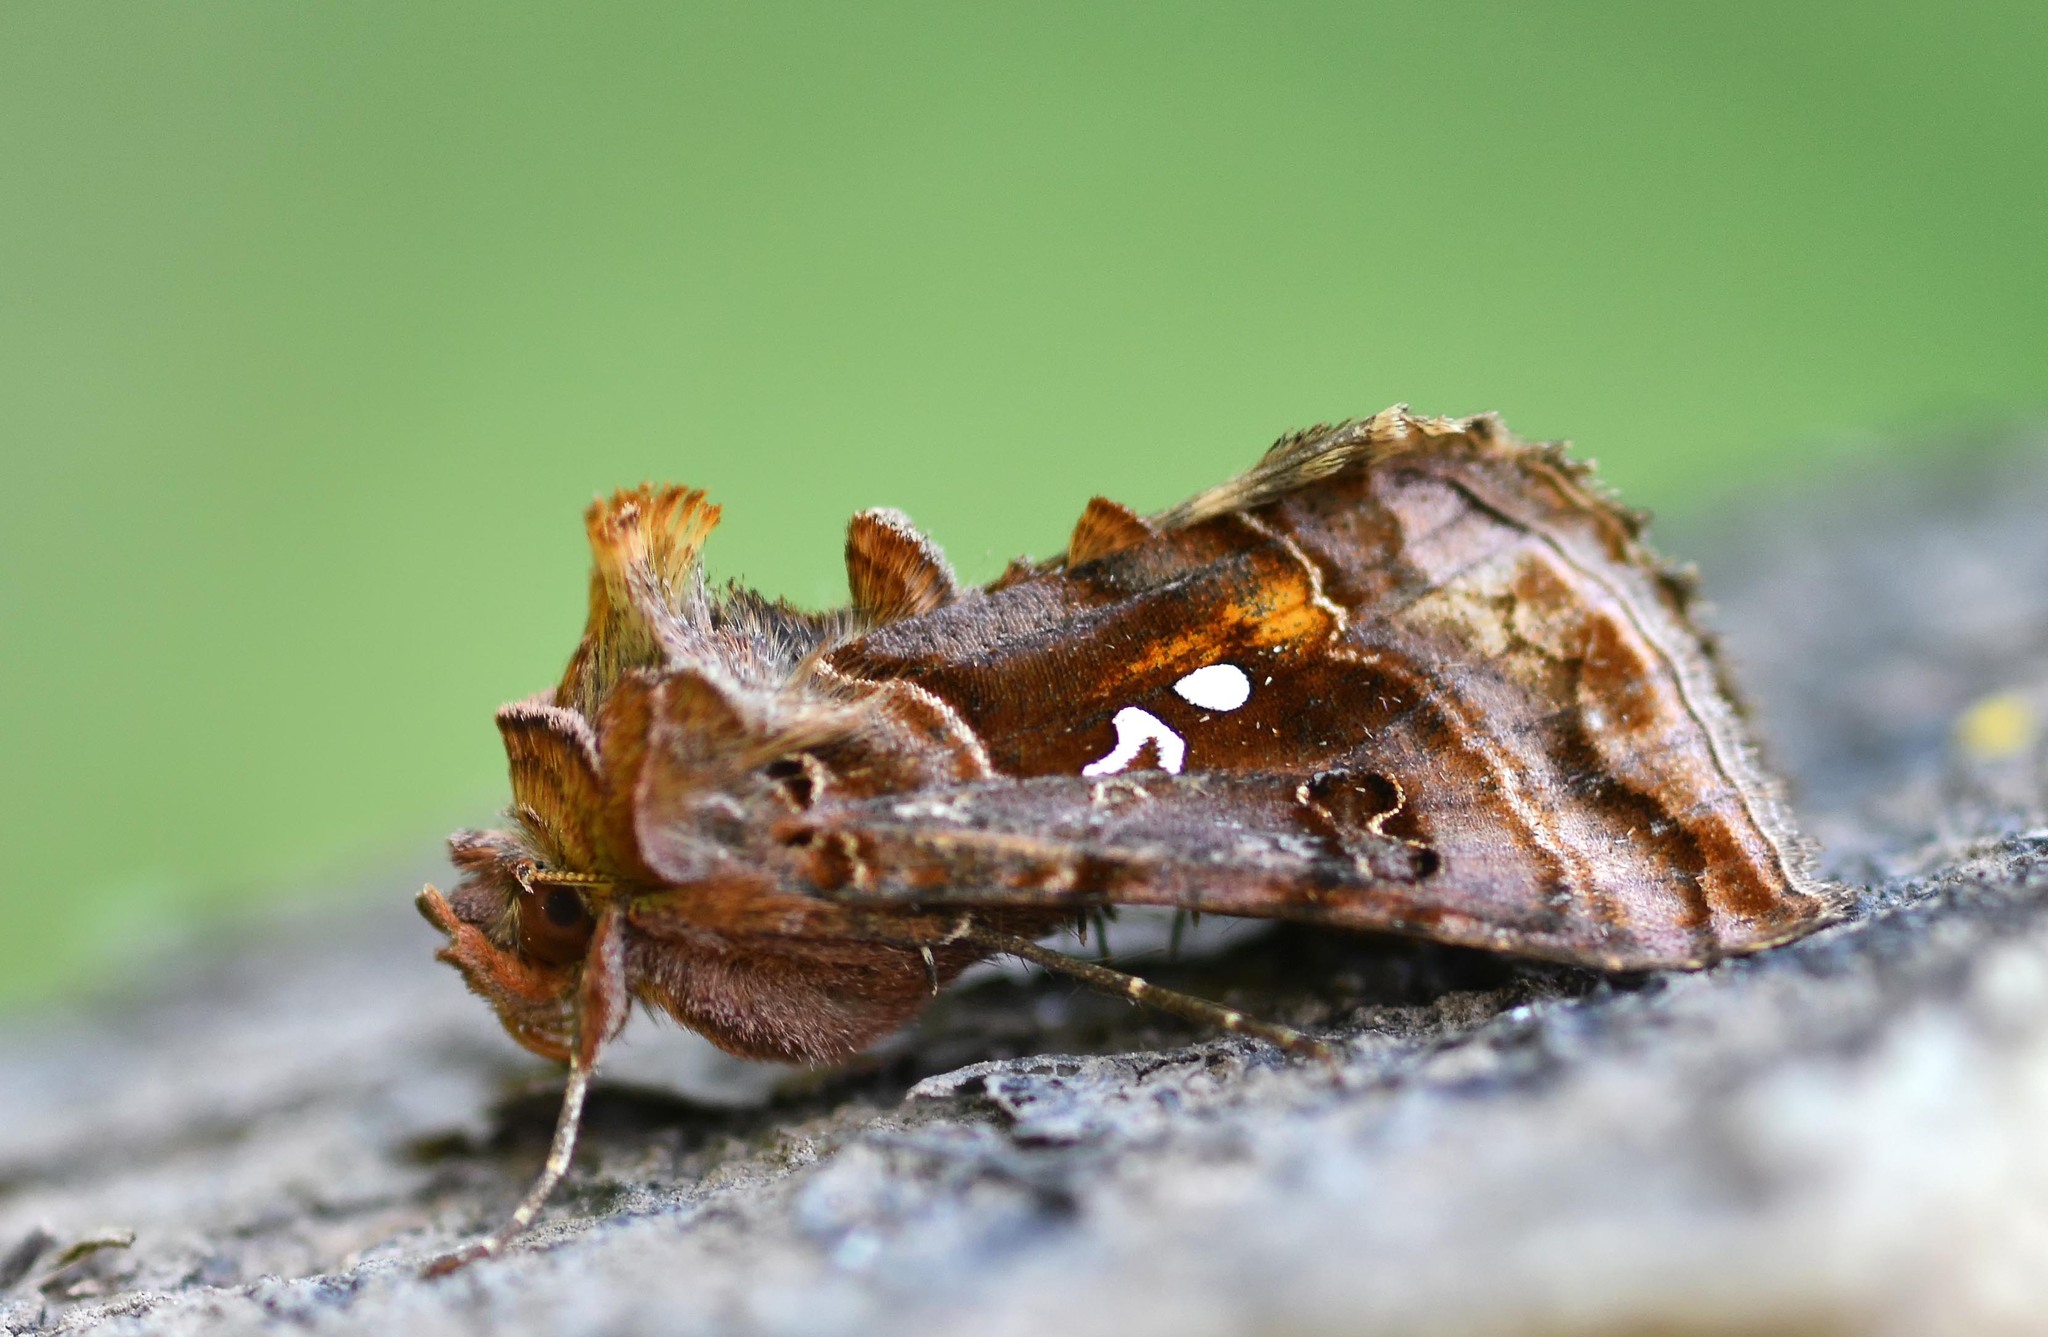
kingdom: Animalia
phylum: Arthropoda
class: Insecta
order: Lepidoptera
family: Noctuidae
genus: Autographa
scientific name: Autographa pulchrina
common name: Beautiful golden y
